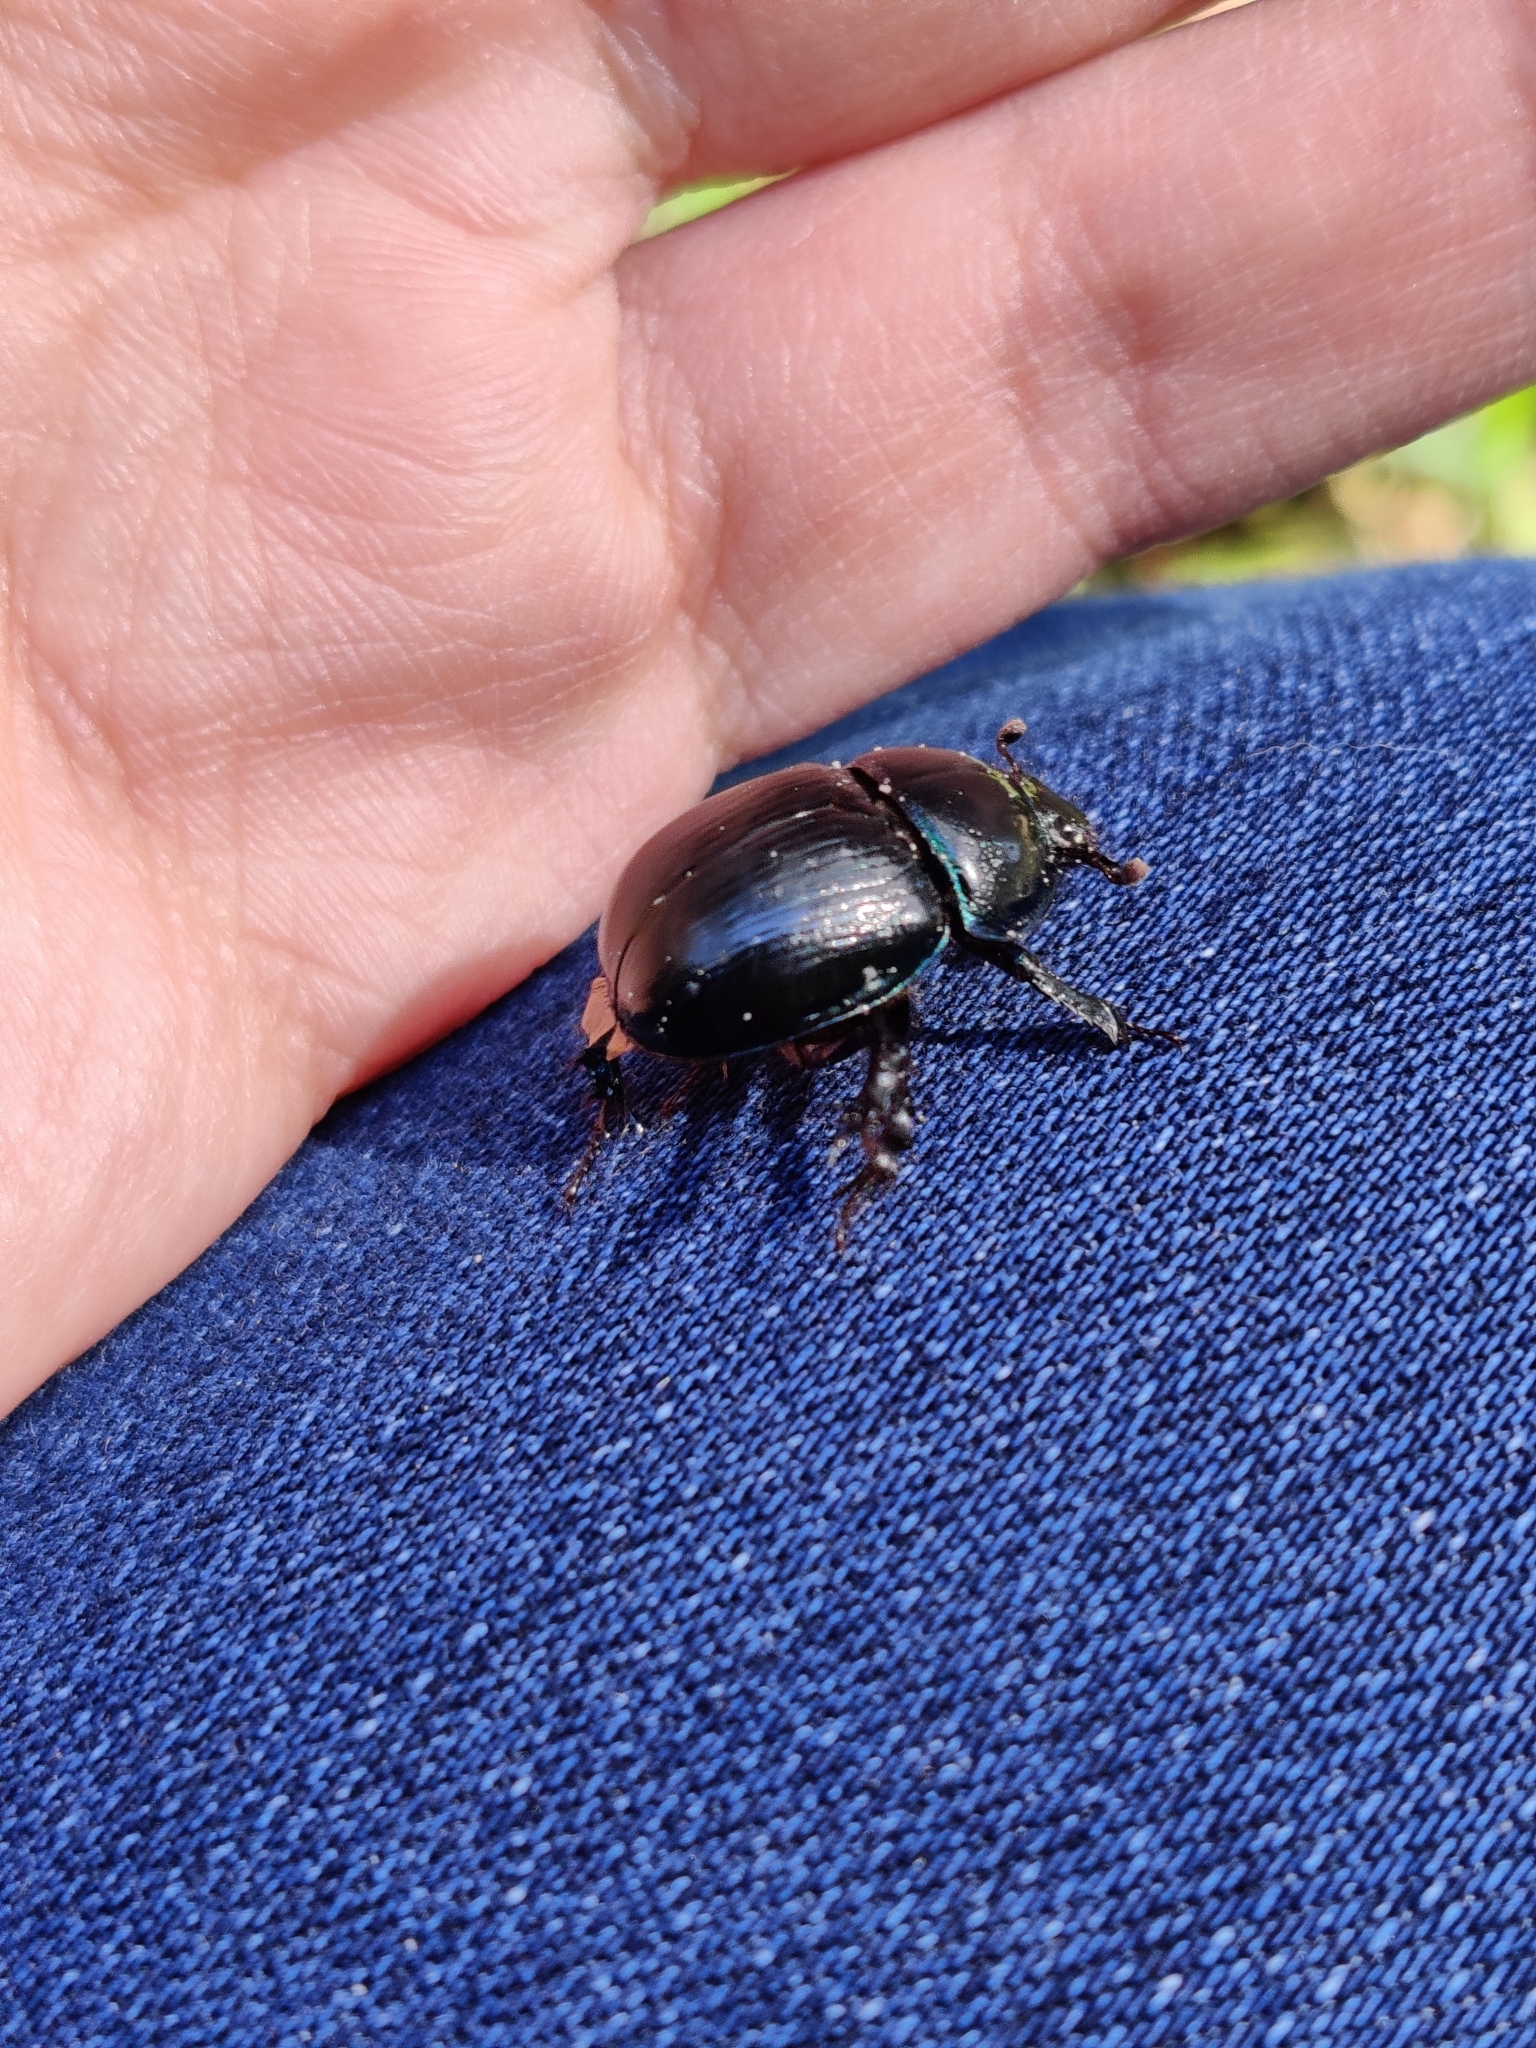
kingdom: Animalia
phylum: Arthropoda
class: Insecta
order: Coleoptera
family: Geotrupidae
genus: Anoplotrupes
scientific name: Anoplotrupes stercorosus
